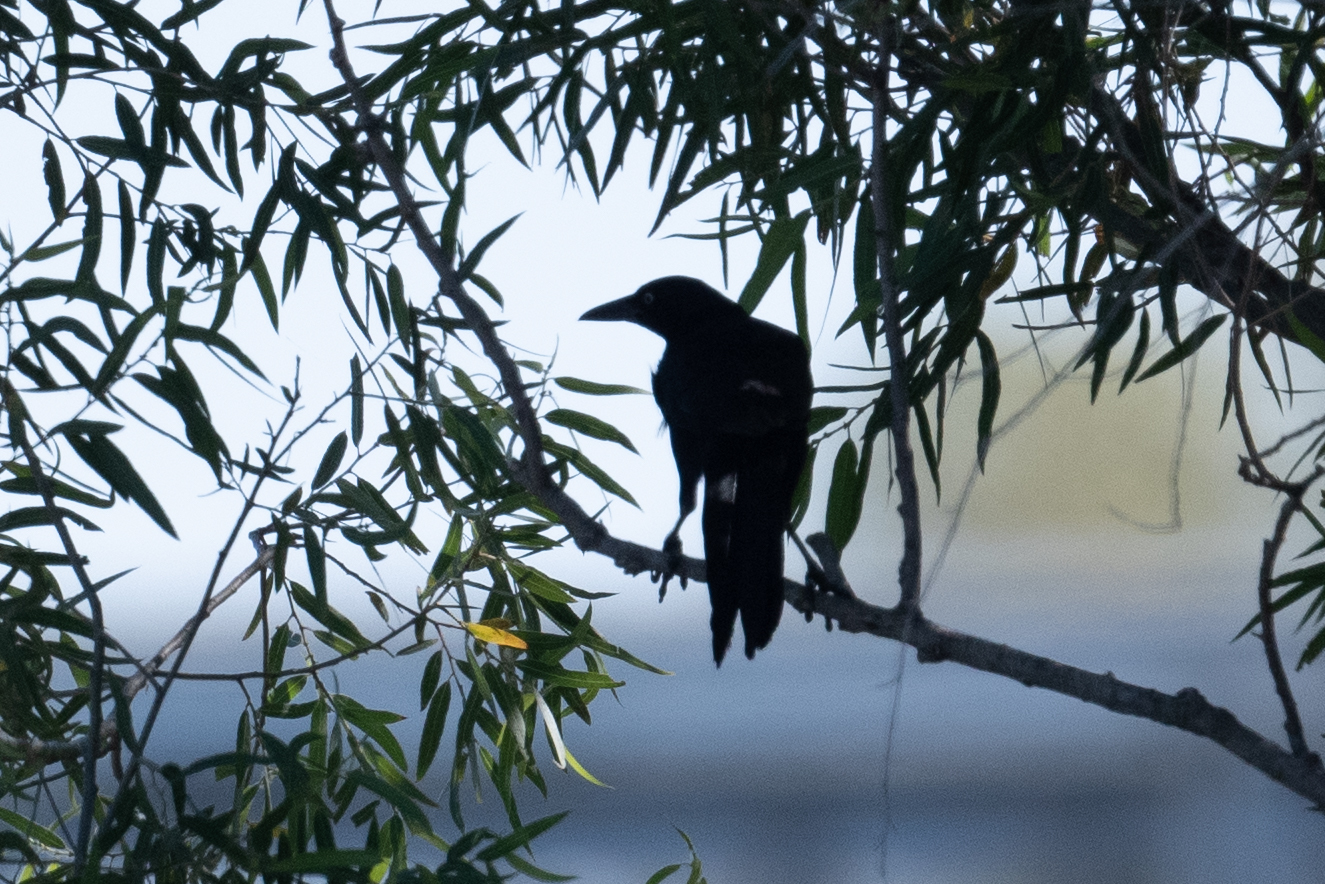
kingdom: Animalia
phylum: Chordata
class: Aves
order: Passeriformes
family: Icteridae
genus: Quiscalus
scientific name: Quiscalus mexicanus
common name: Great-tailed grackle
